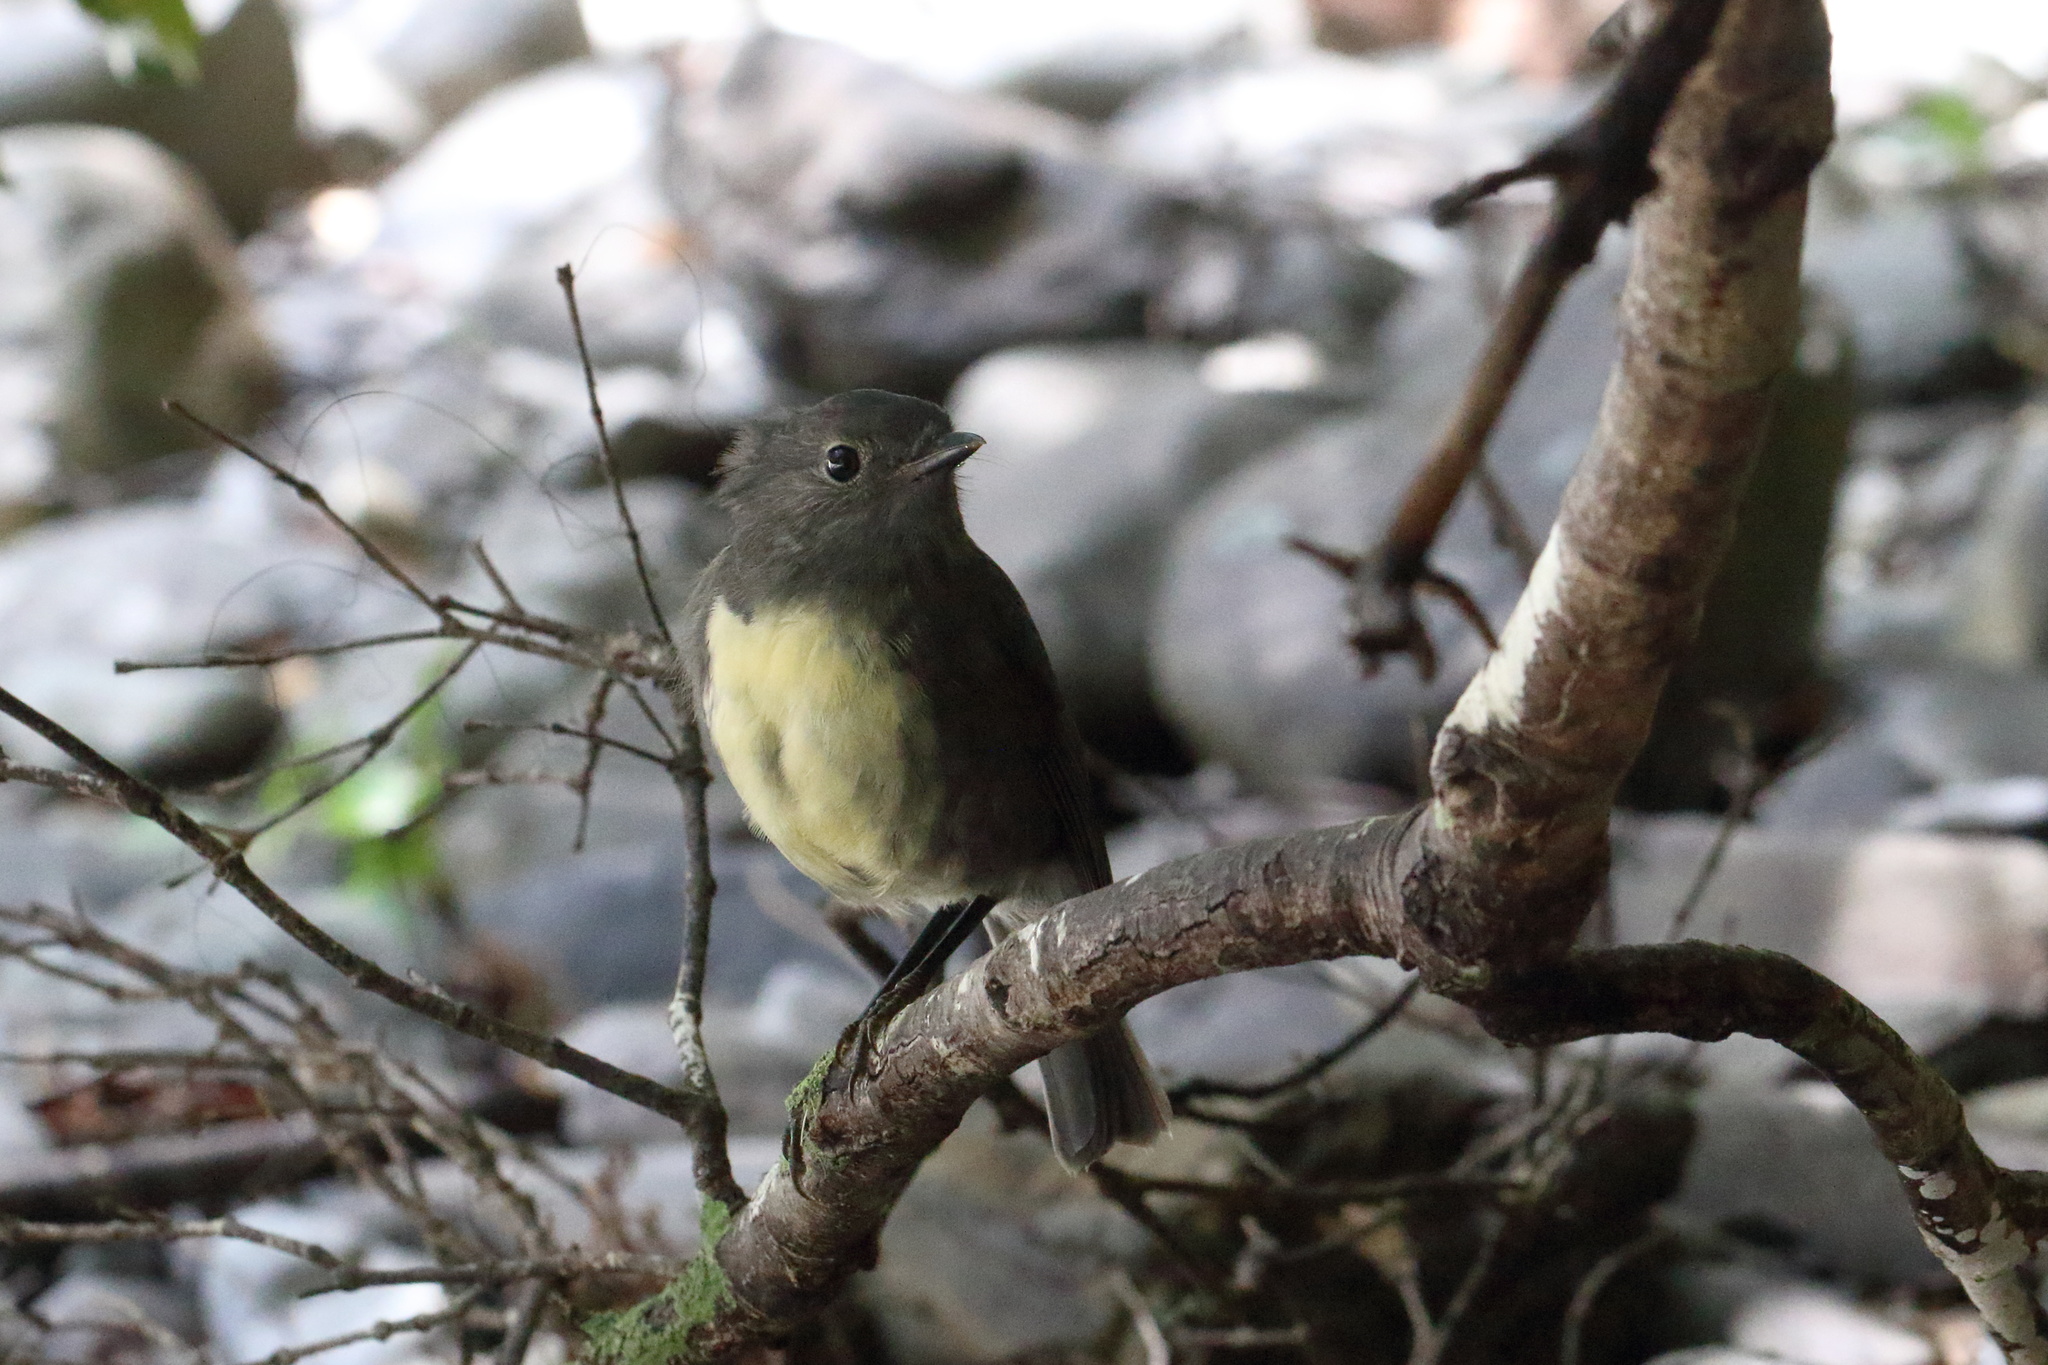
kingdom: Animalia
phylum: Chordata
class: Aves
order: Passeriformes
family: Petroicidae
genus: Petroica
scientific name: Petroica australis
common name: New zealand robin
